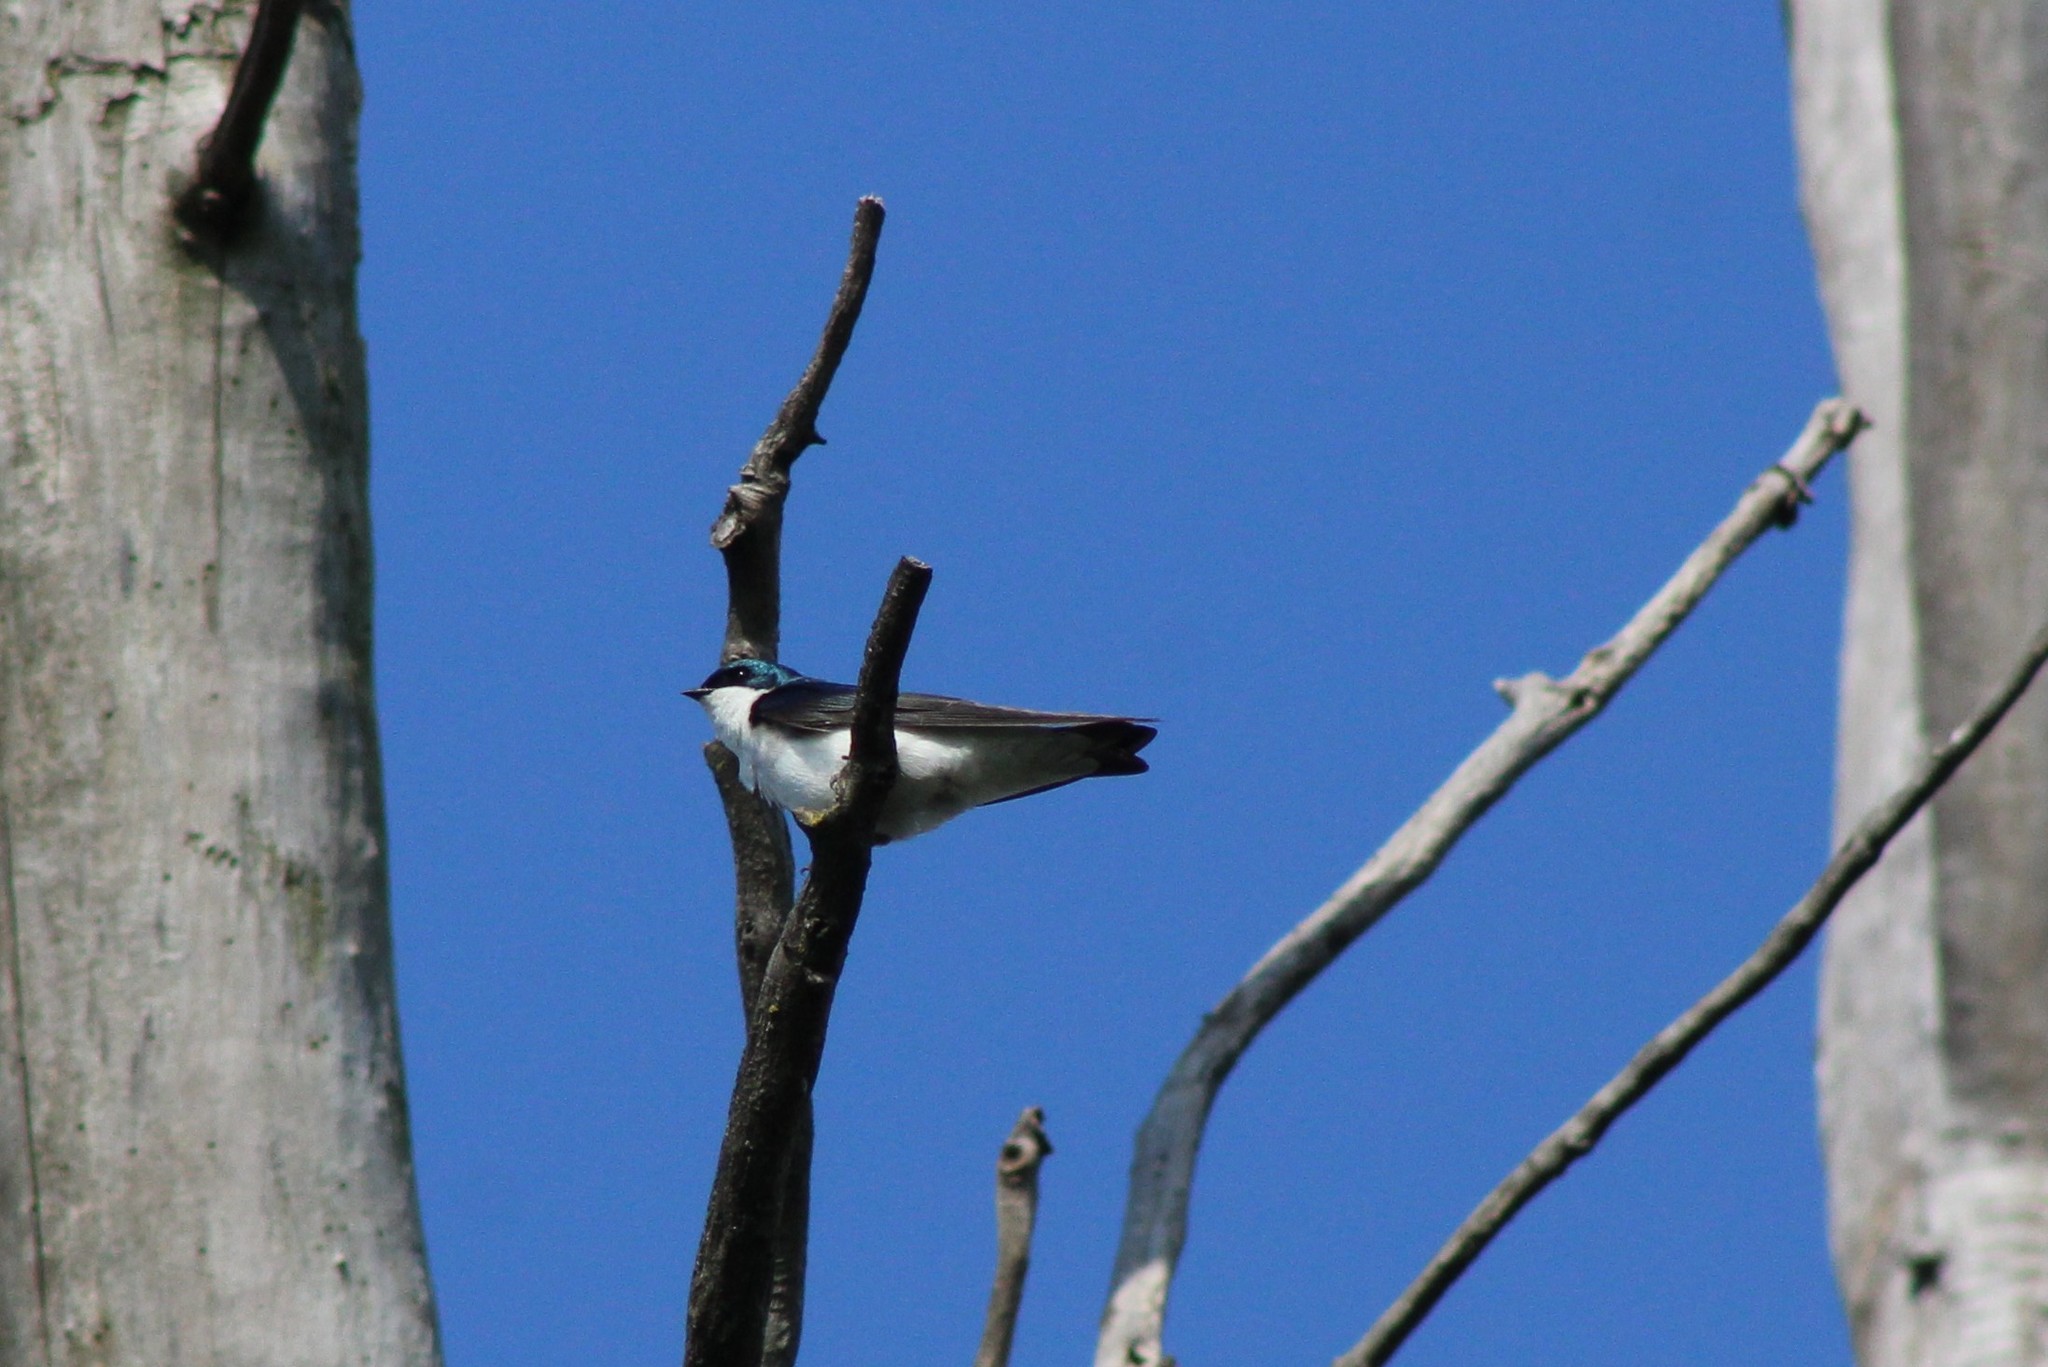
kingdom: Animalia
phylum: Chordata
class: Aves
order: Passeriformes
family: Hirundinidae
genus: Tachycineta
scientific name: Tachycineta bicolor
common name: Tree swallow
